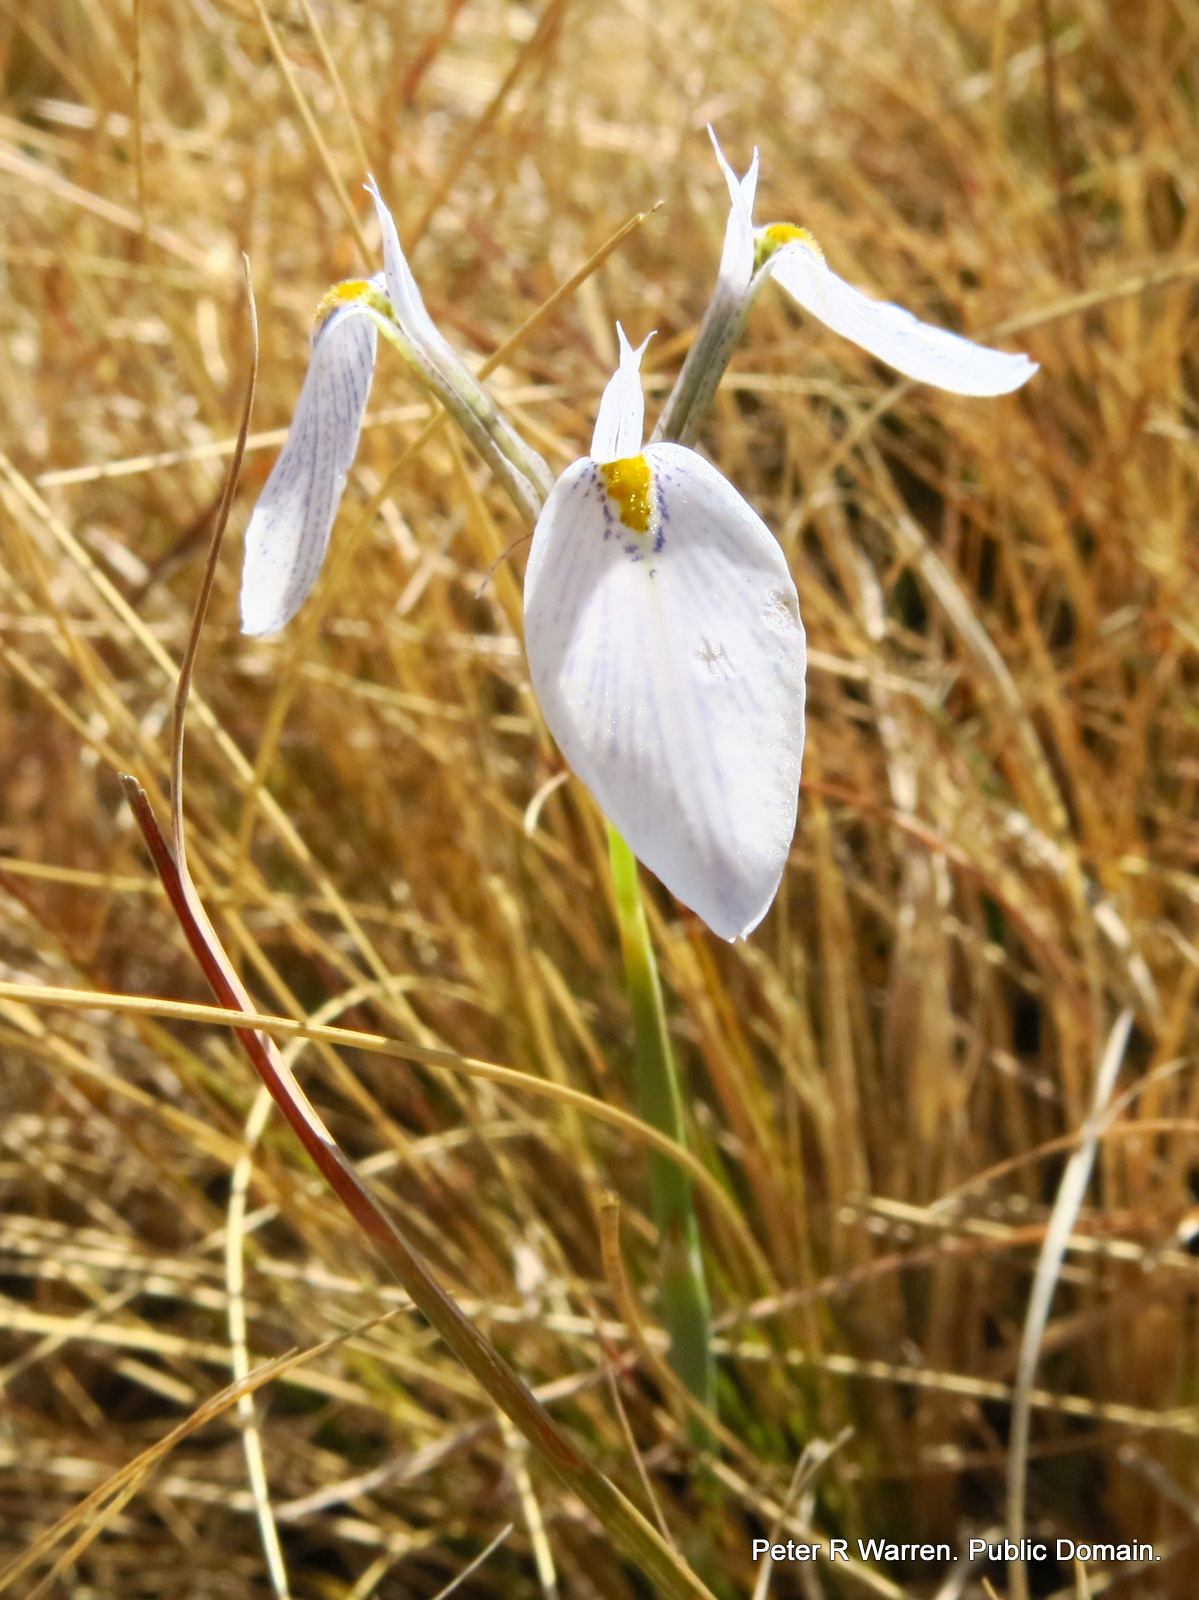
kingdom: Plantae
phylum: Tracheophyta
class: Liliopsida
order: Asparagales
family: Iridaceae
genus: Moraea
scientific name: Moraea modesta
